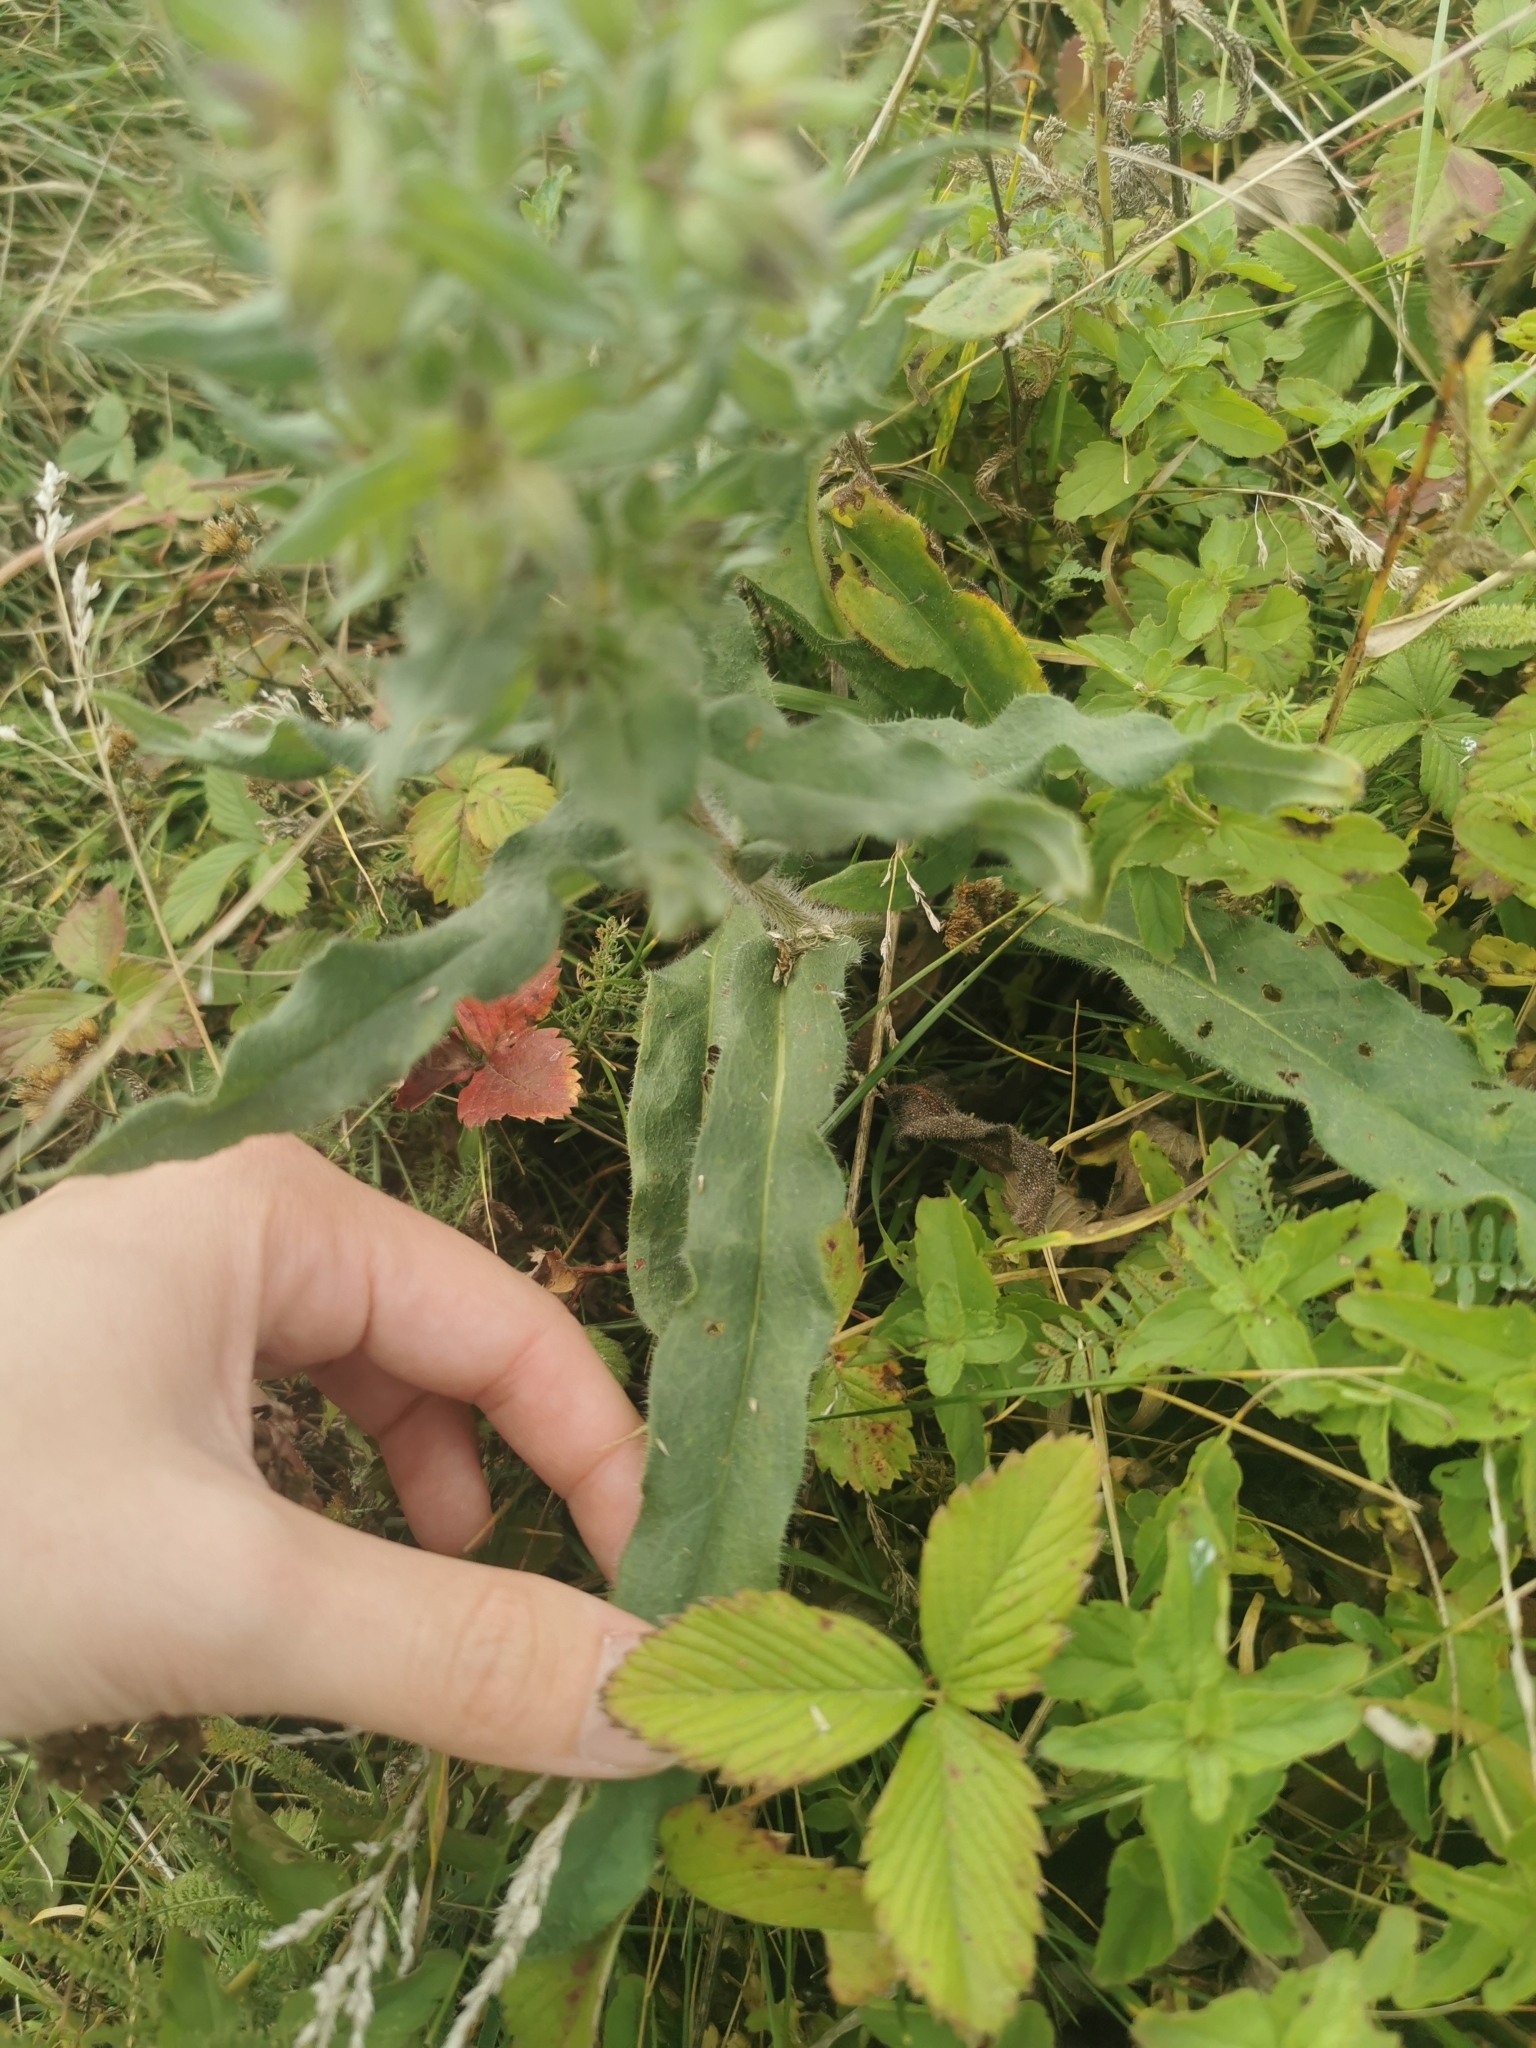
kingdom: Plantae
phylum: Tracheophyta
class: Magnoliopsida
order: Boraginales
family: Boraginaceae
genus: Nonea
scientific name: Nonea pulla
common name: Brown nonea
